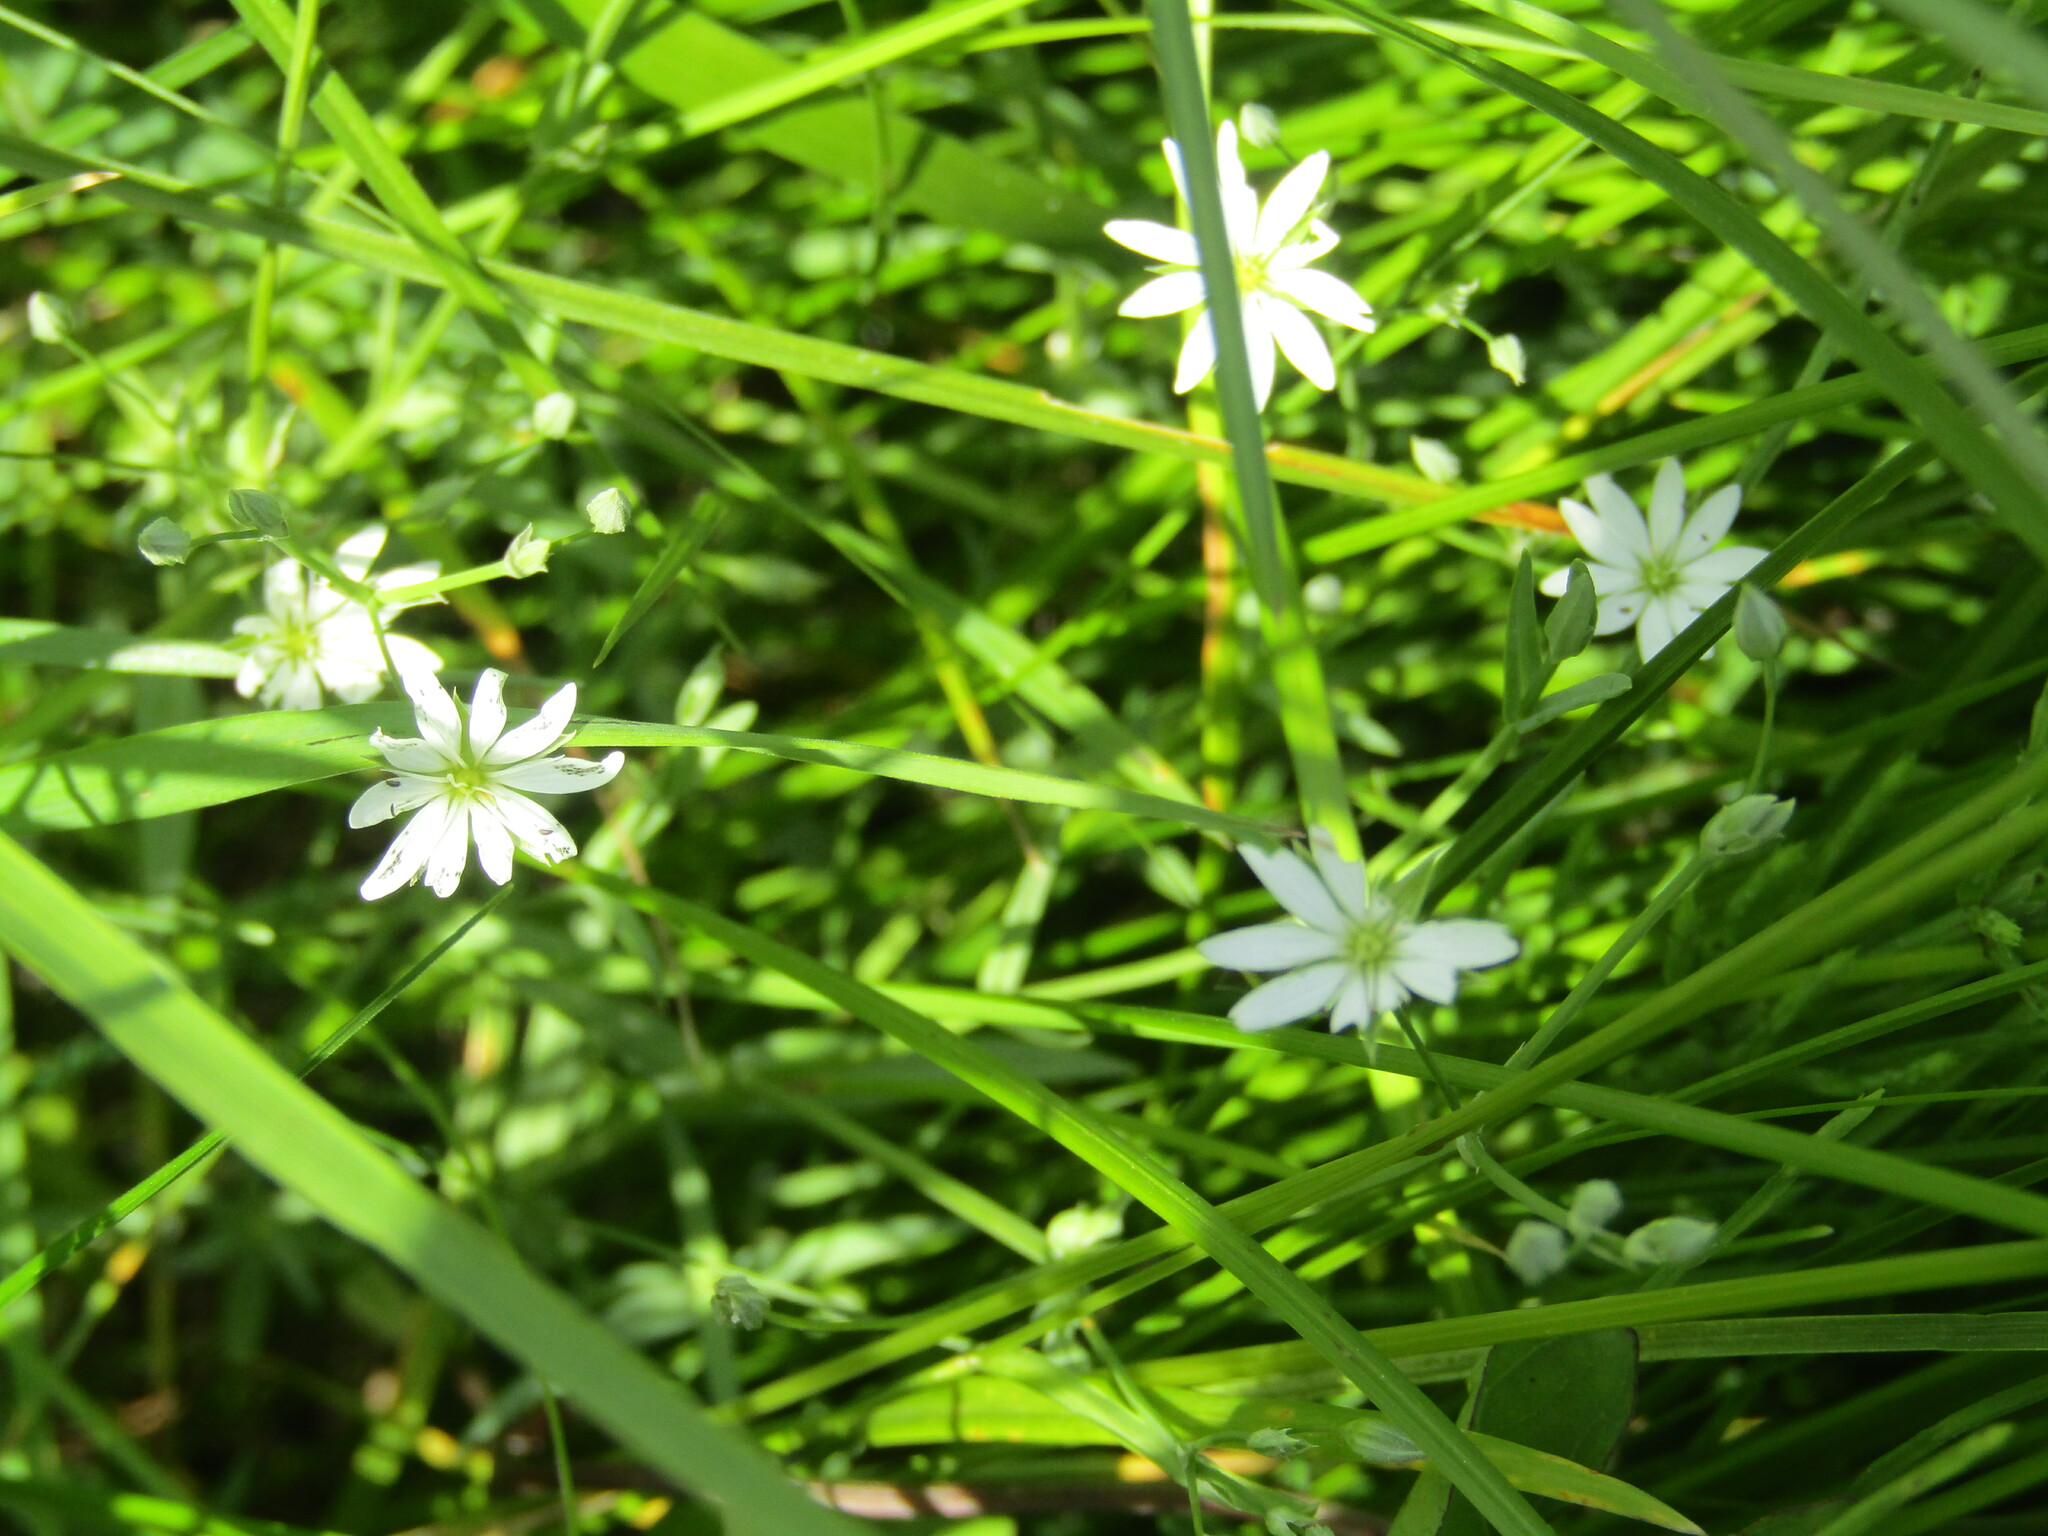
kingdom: Plantae
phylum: Tracheophyta
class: Magnoliopsida
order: Caryophyllales
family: Caryophyllaceae
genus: Stellaria
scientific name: Stellaria graminea
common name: Grass-like starwort
